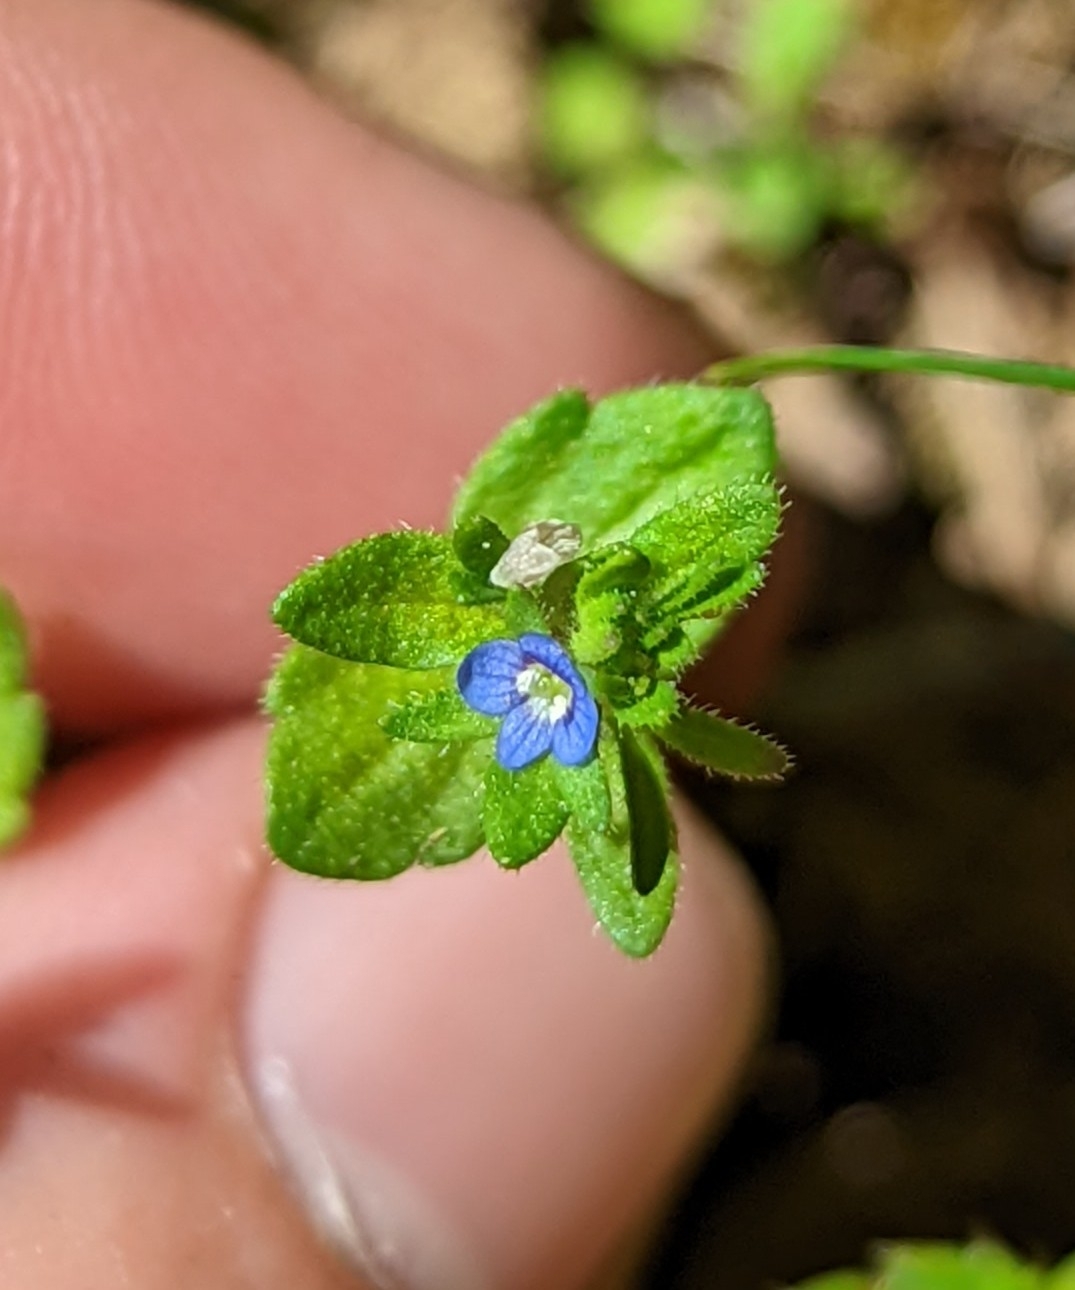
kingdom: Plantae
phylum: Tracheophyta
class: Magnoliopsida
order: Lamiales
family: Plantaginaceae
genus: Veronica
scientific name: Veronica arvensis
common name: Corn speedwell
